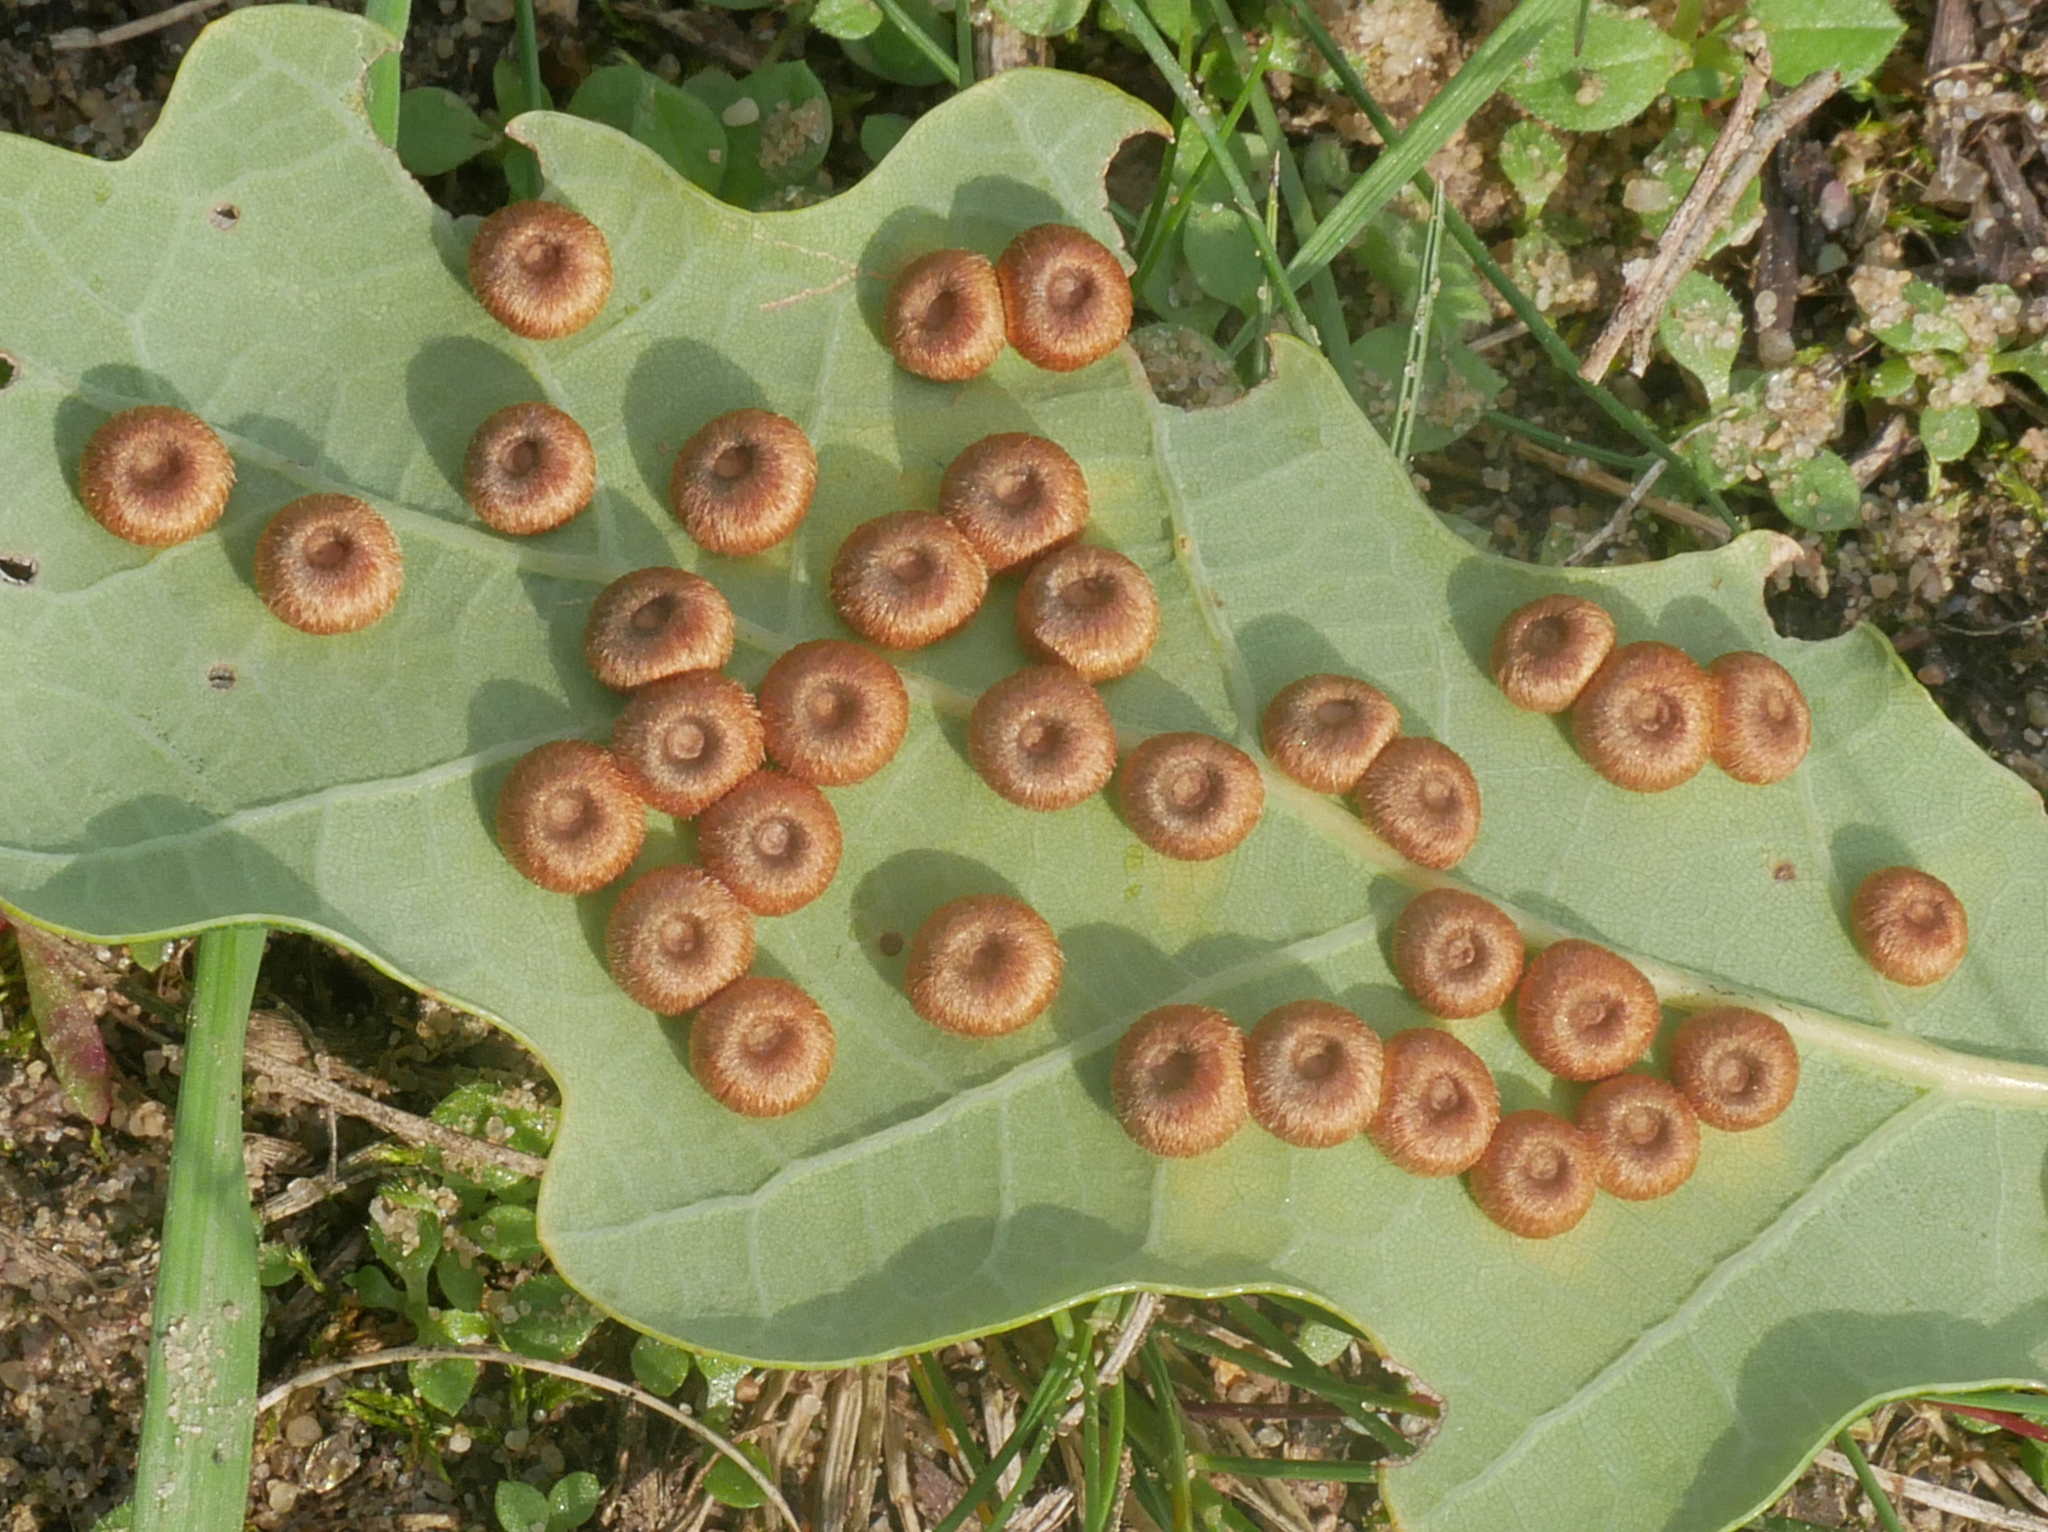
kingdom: Animalia
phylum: Arthropoda
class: Insecta
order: Hymenoptera
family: Cynipidae
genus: Neuroterus
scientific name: Neuroterus numismalis
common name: Silk-button spangle gall
